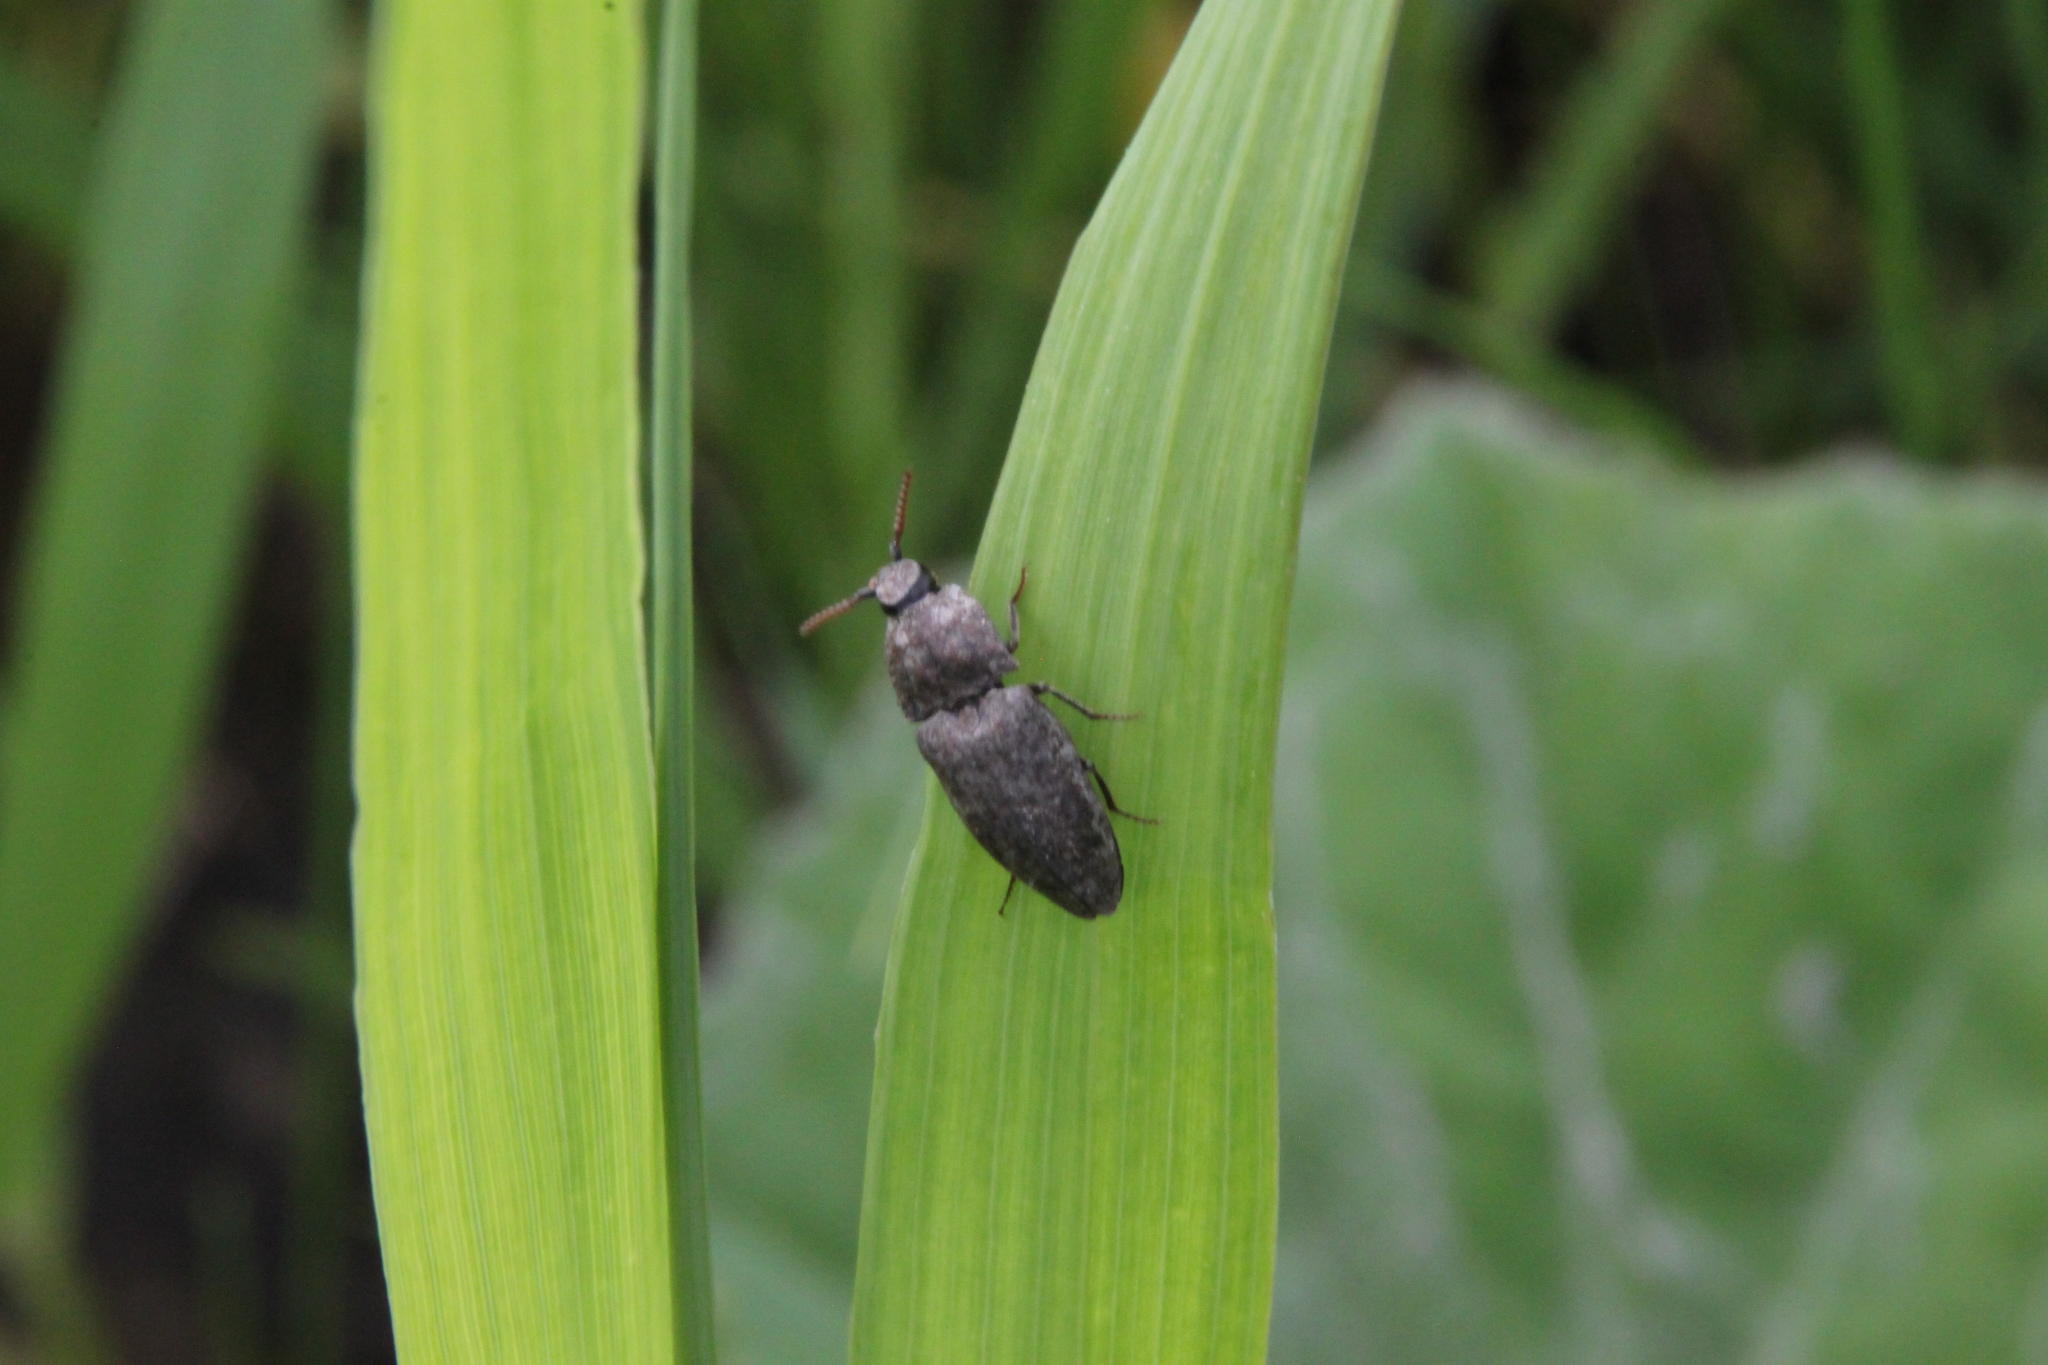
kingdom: Animalia
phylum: Arthropoda
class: Insecta
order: Coleoptera
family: Elateridae
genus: Agrypnus
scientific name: Agrypnus murinus
